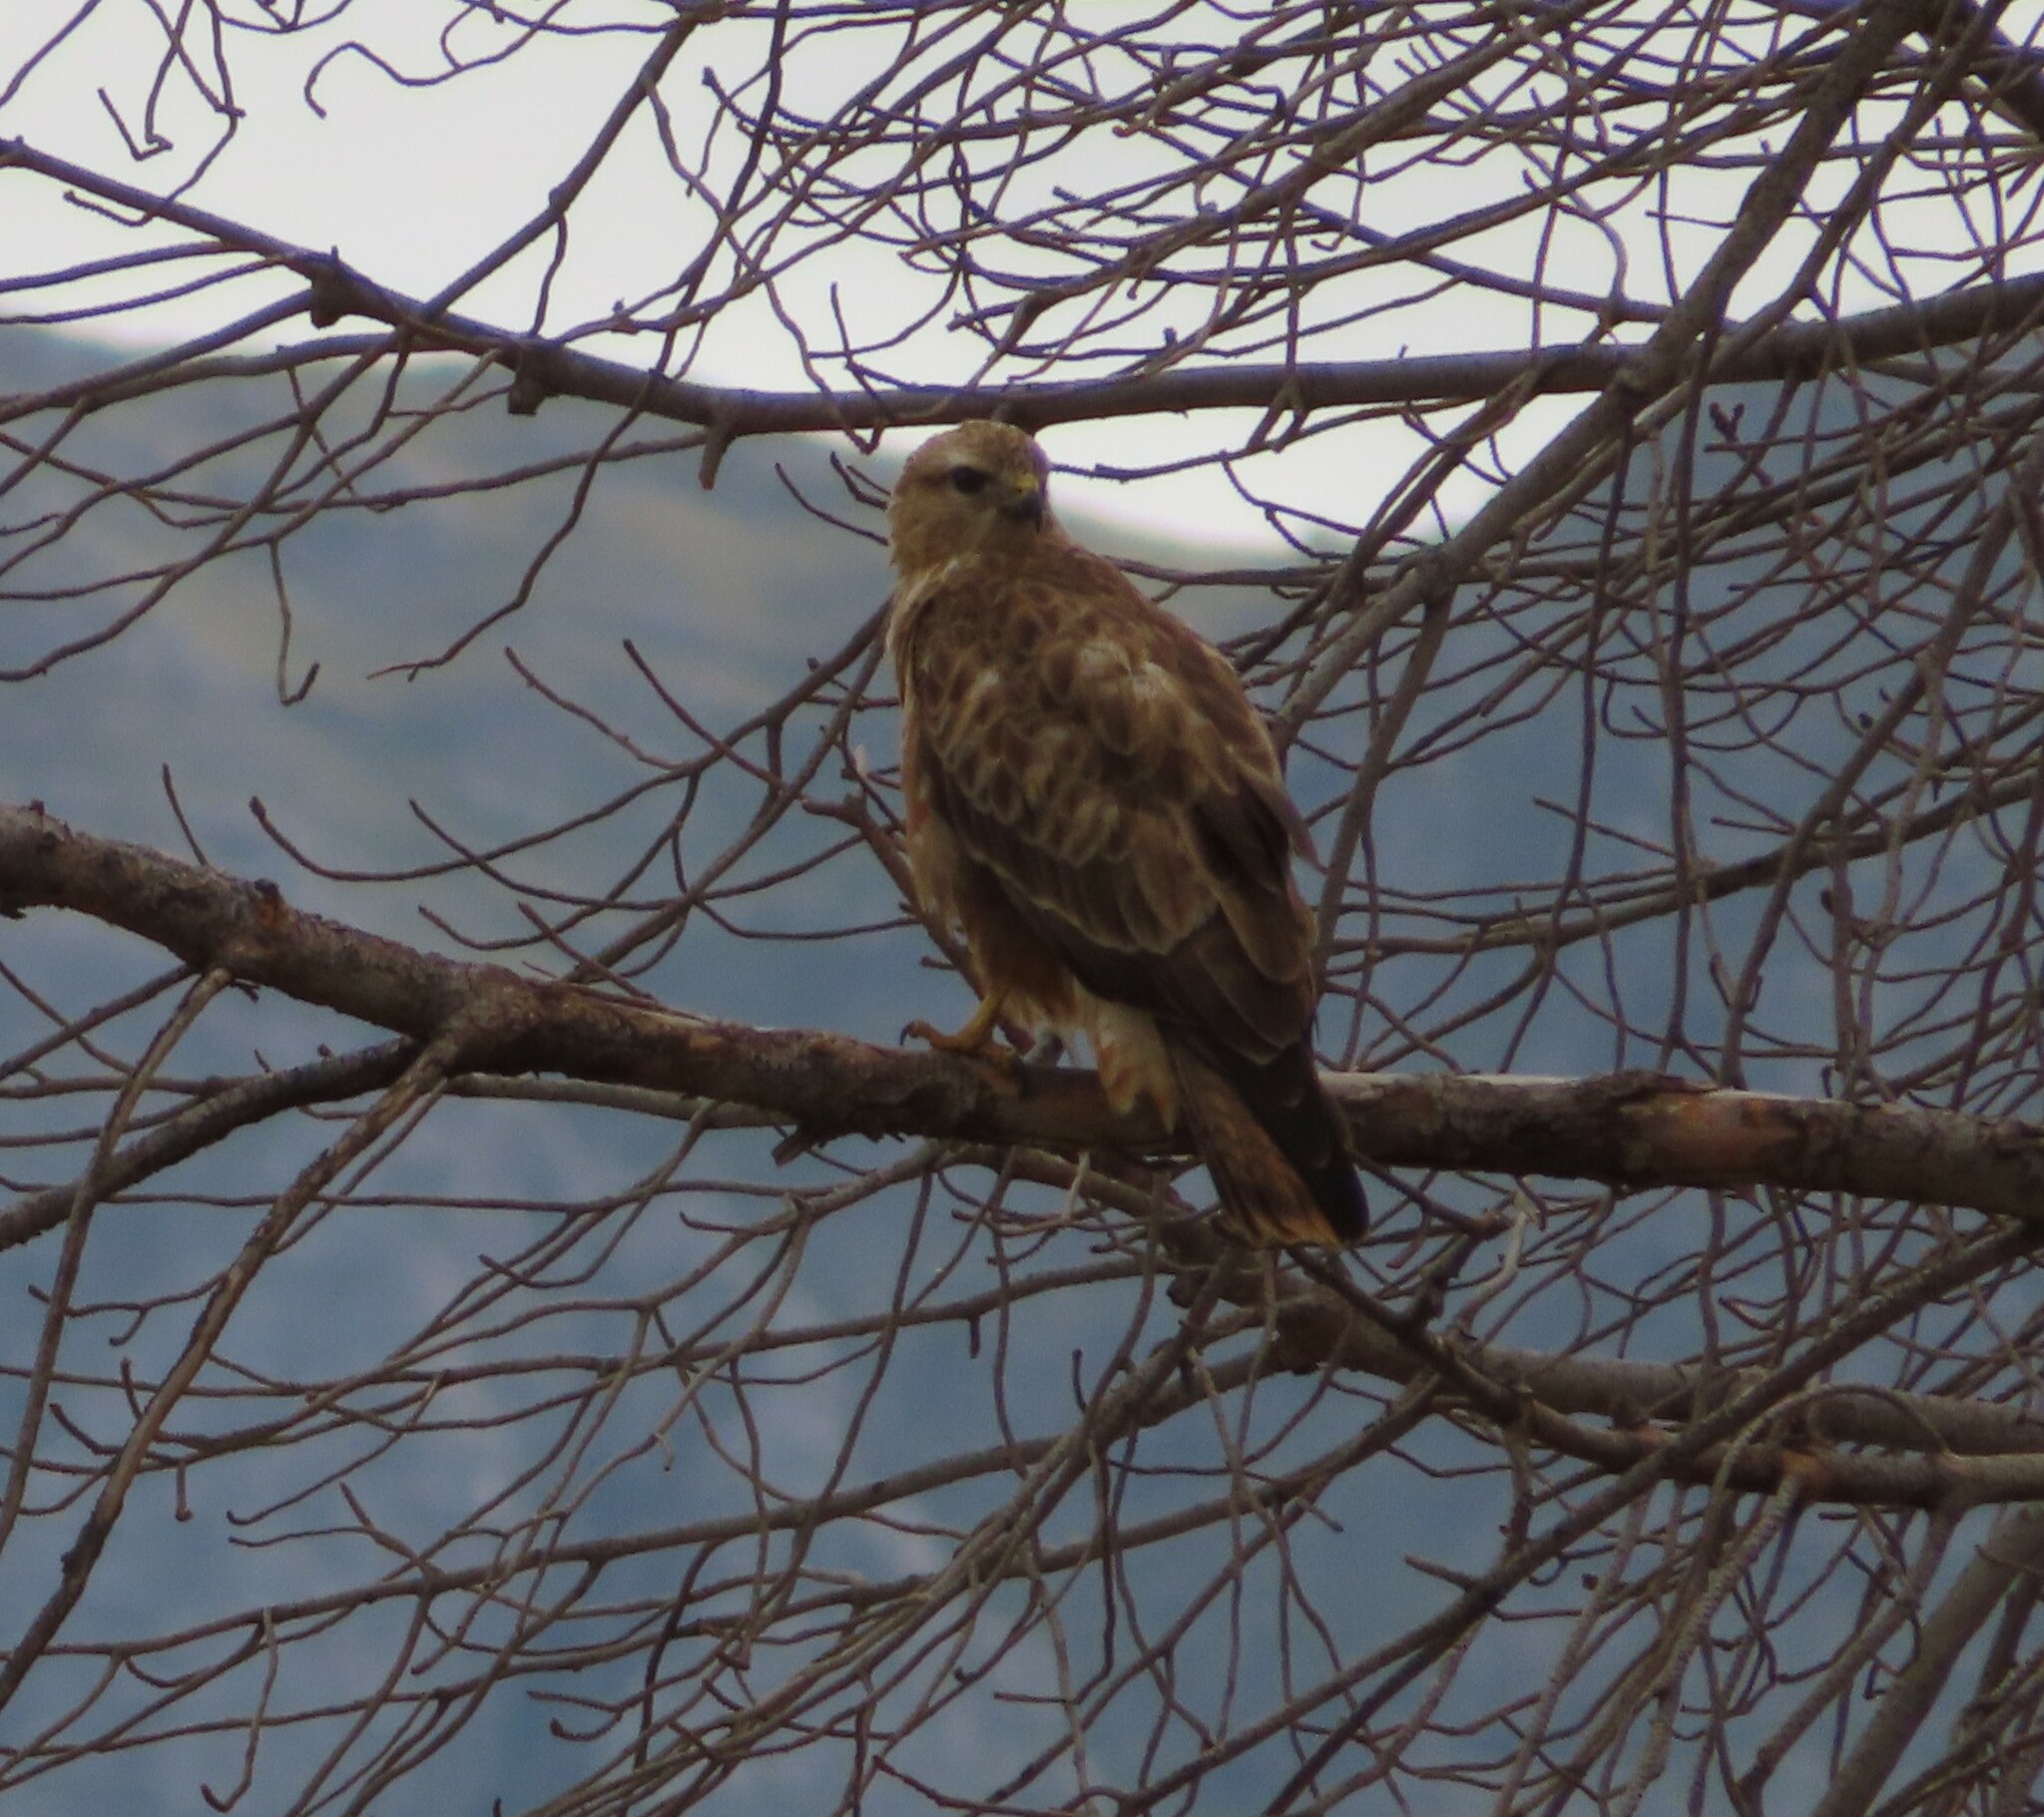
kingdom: Animalia
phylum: Chordata
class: Aves
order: Accipitriformes
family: Accipitridae
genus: Buteo
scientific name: Buteo buteo
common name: Common buzzard
